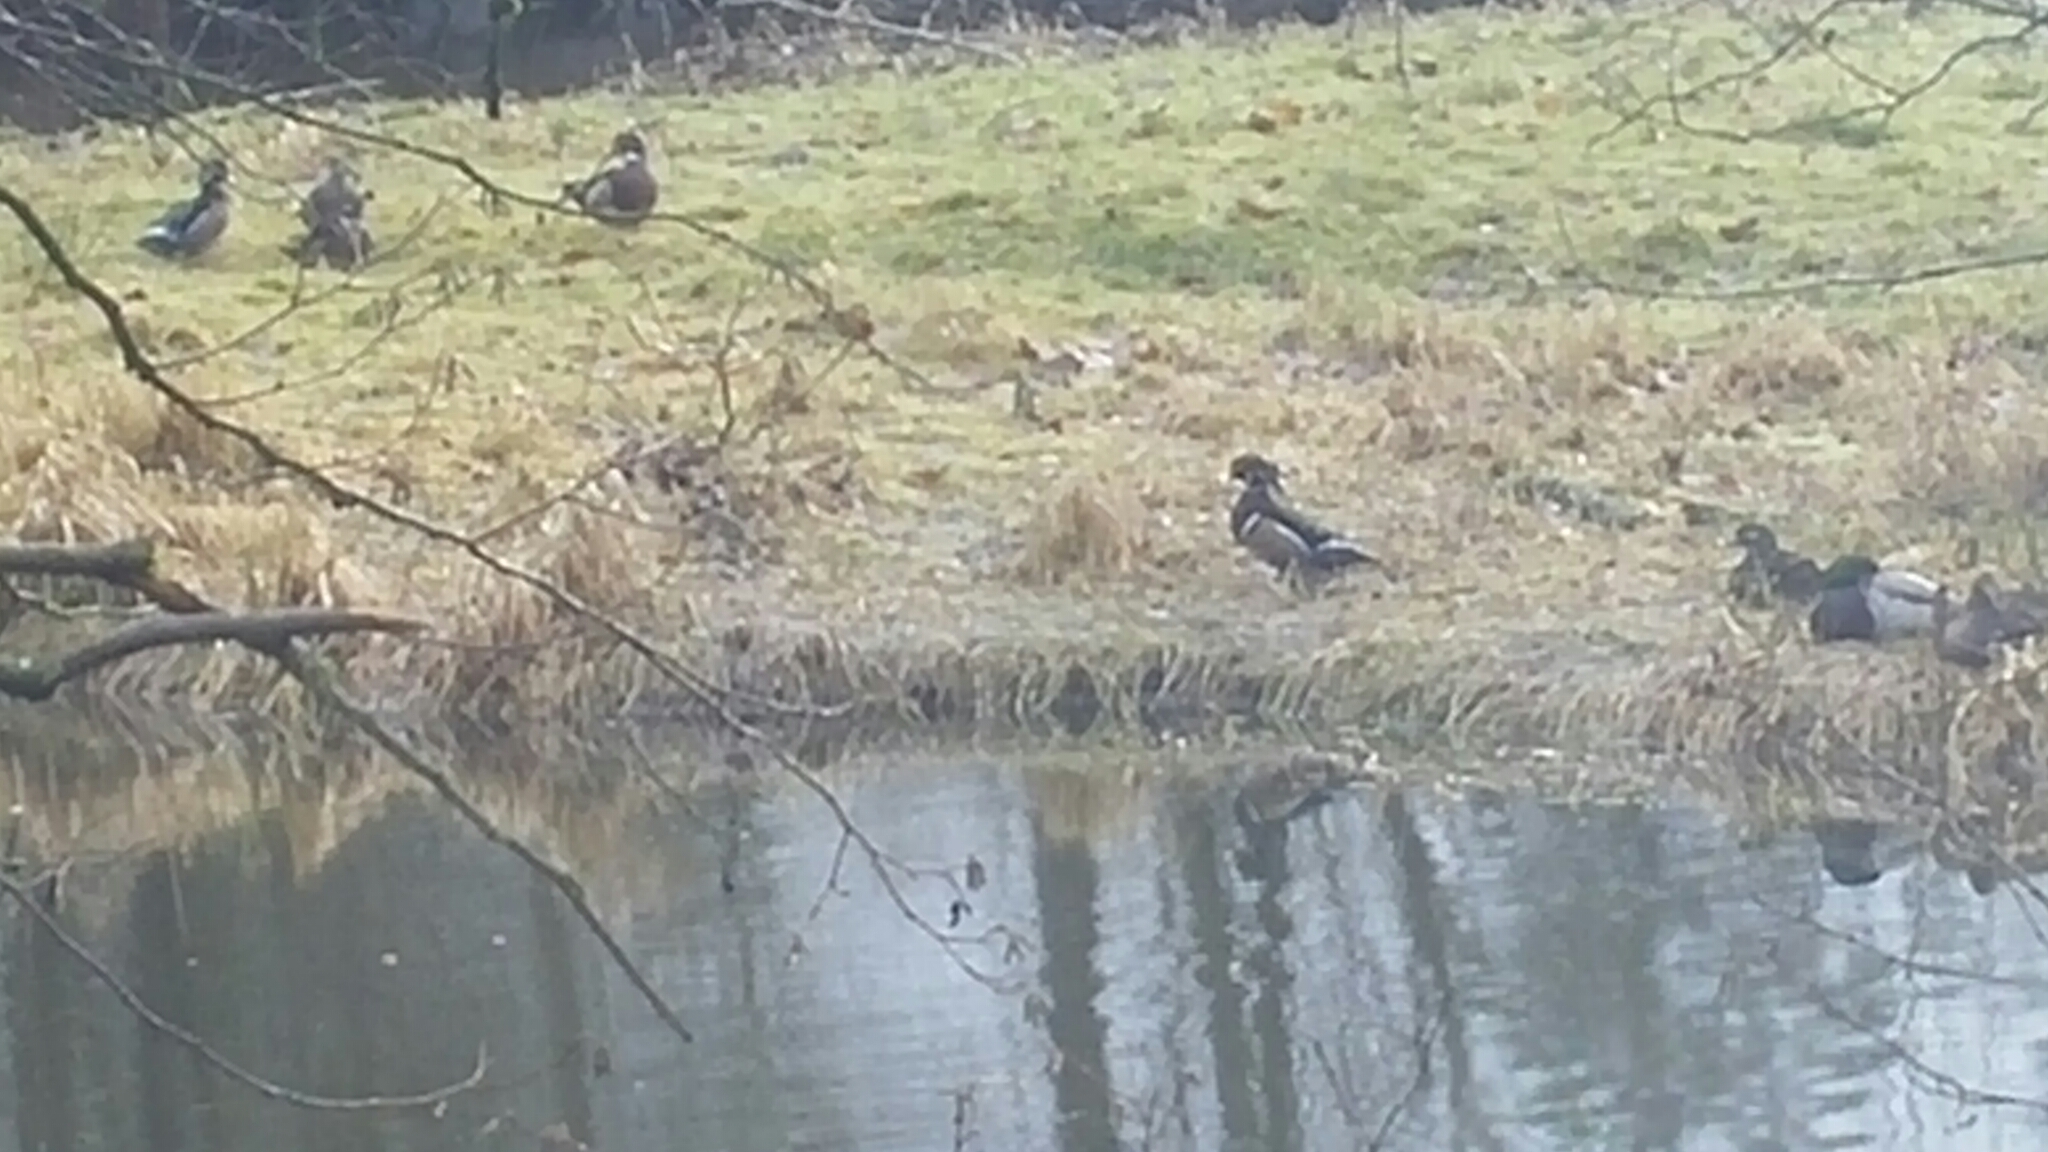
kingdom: Animalia
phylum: Chordata
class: Aves
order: Anseriformes
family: Anatidae
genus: Aix
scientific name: Aix sponsa
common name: Wood duck
